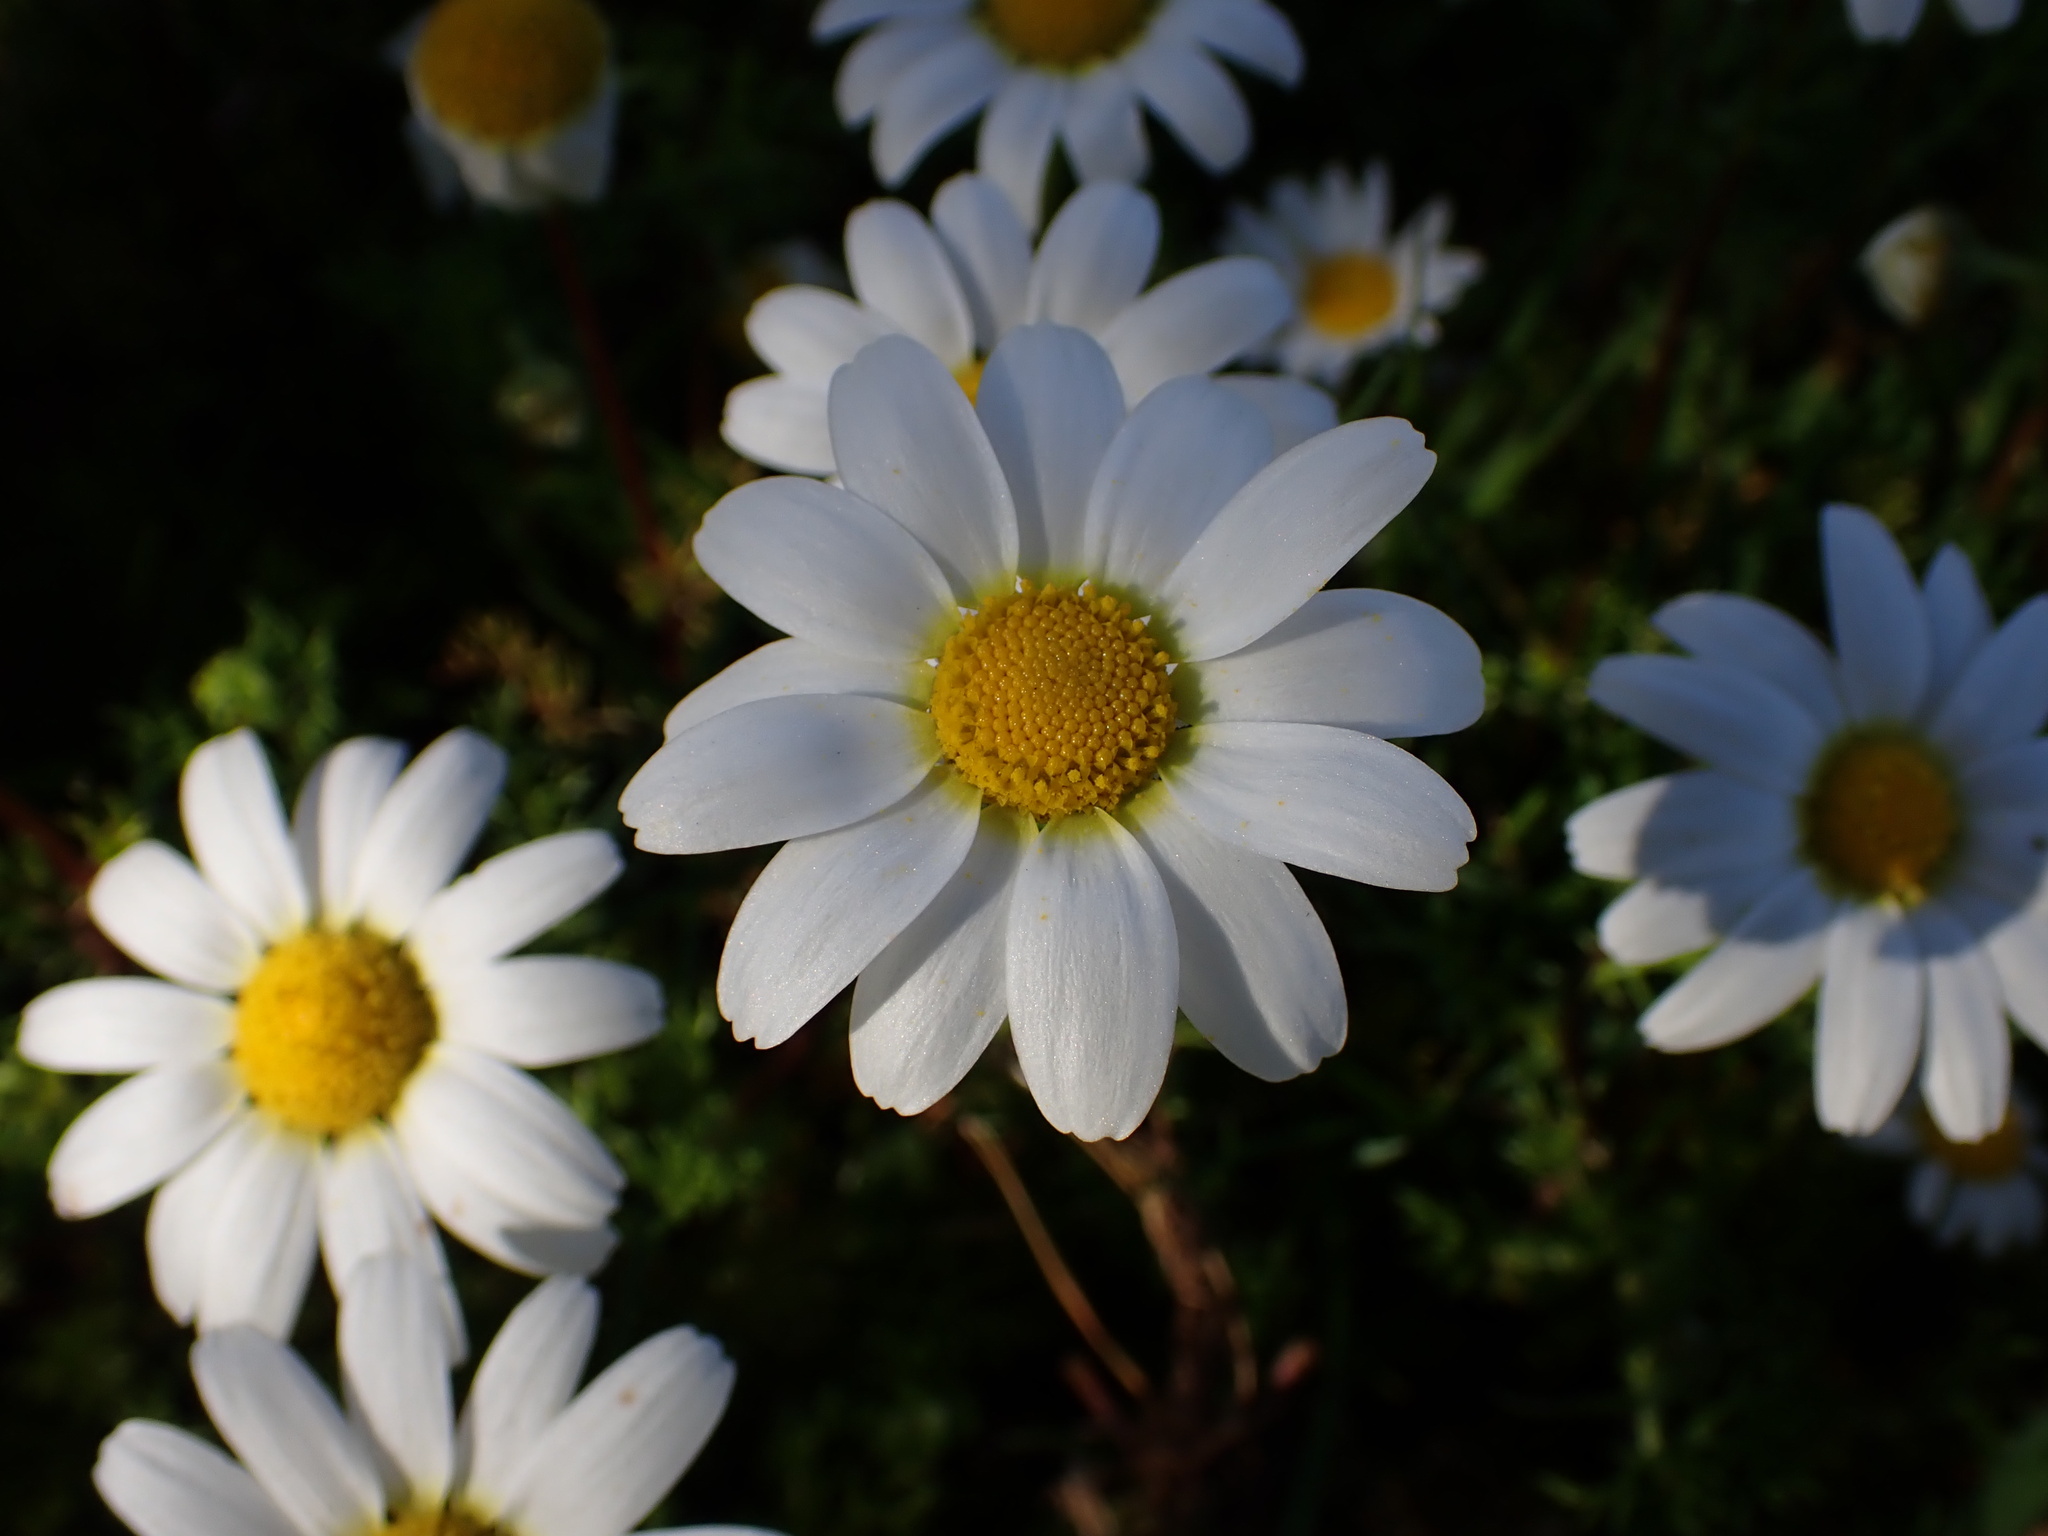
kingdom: Plantae
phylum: Tracheophyta
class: Magnoliopsida
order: Asterales
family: Asteraceae
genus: Chamaemelum
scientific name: Chamaemelum fuscatum
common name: Chamomile
